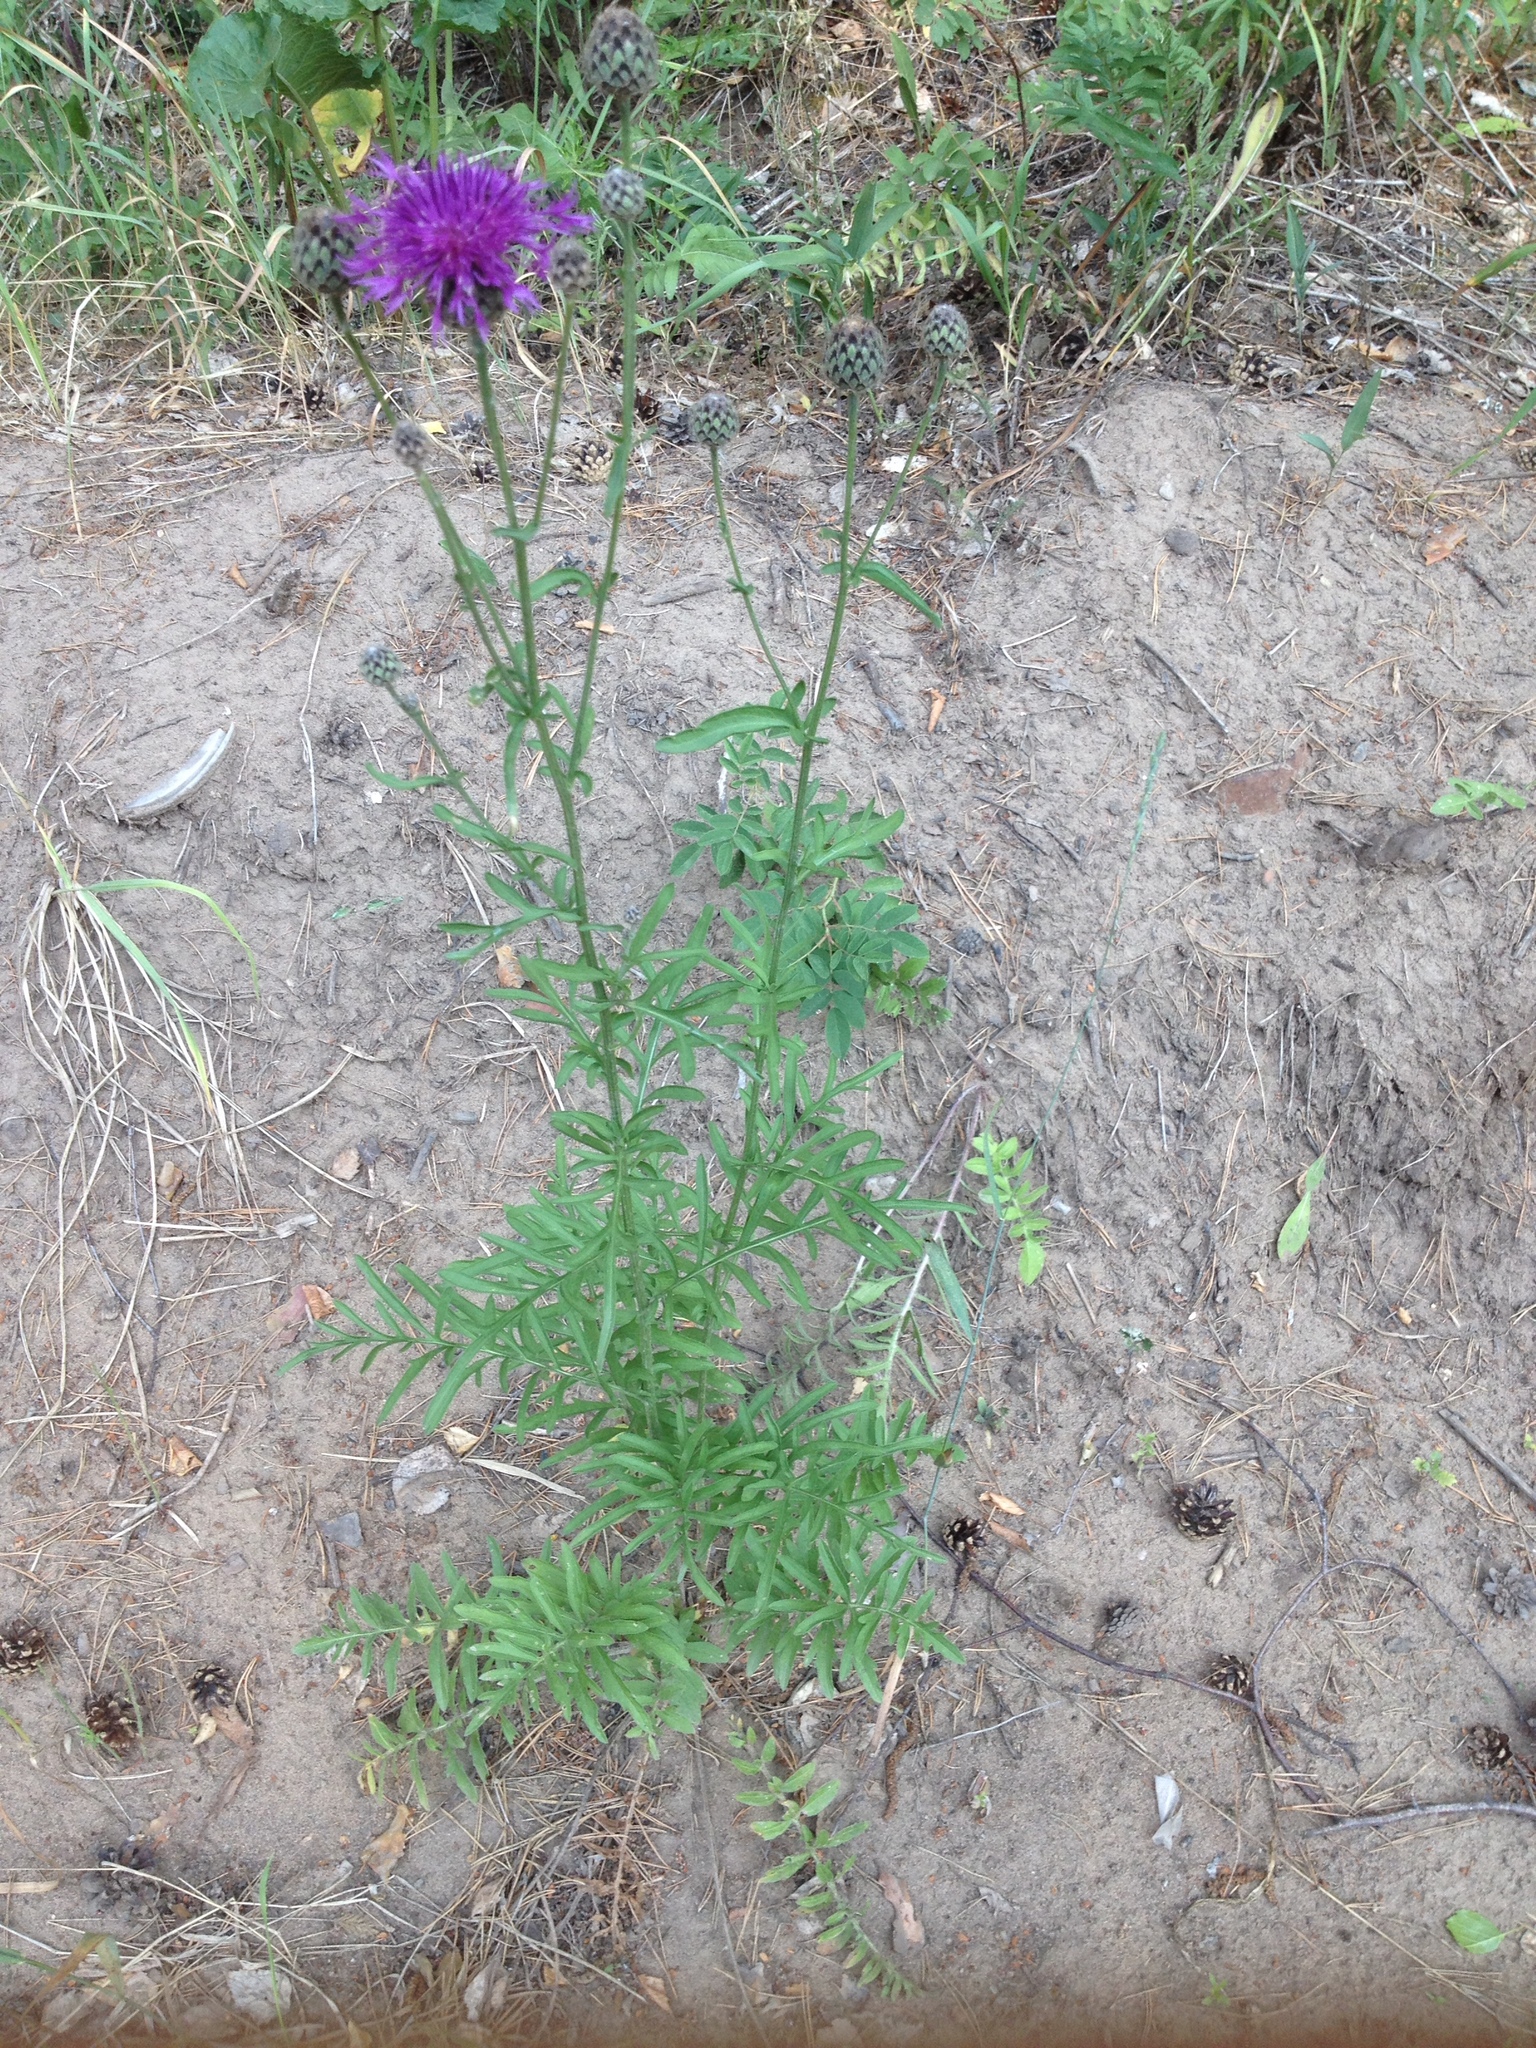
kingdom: Plantae
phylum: Tracheophyta
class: Magnoliopsida
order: Asterales
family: Asteraceae
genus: Centaurea
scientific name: Centaurea scabiosa
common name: Greater knapweed
